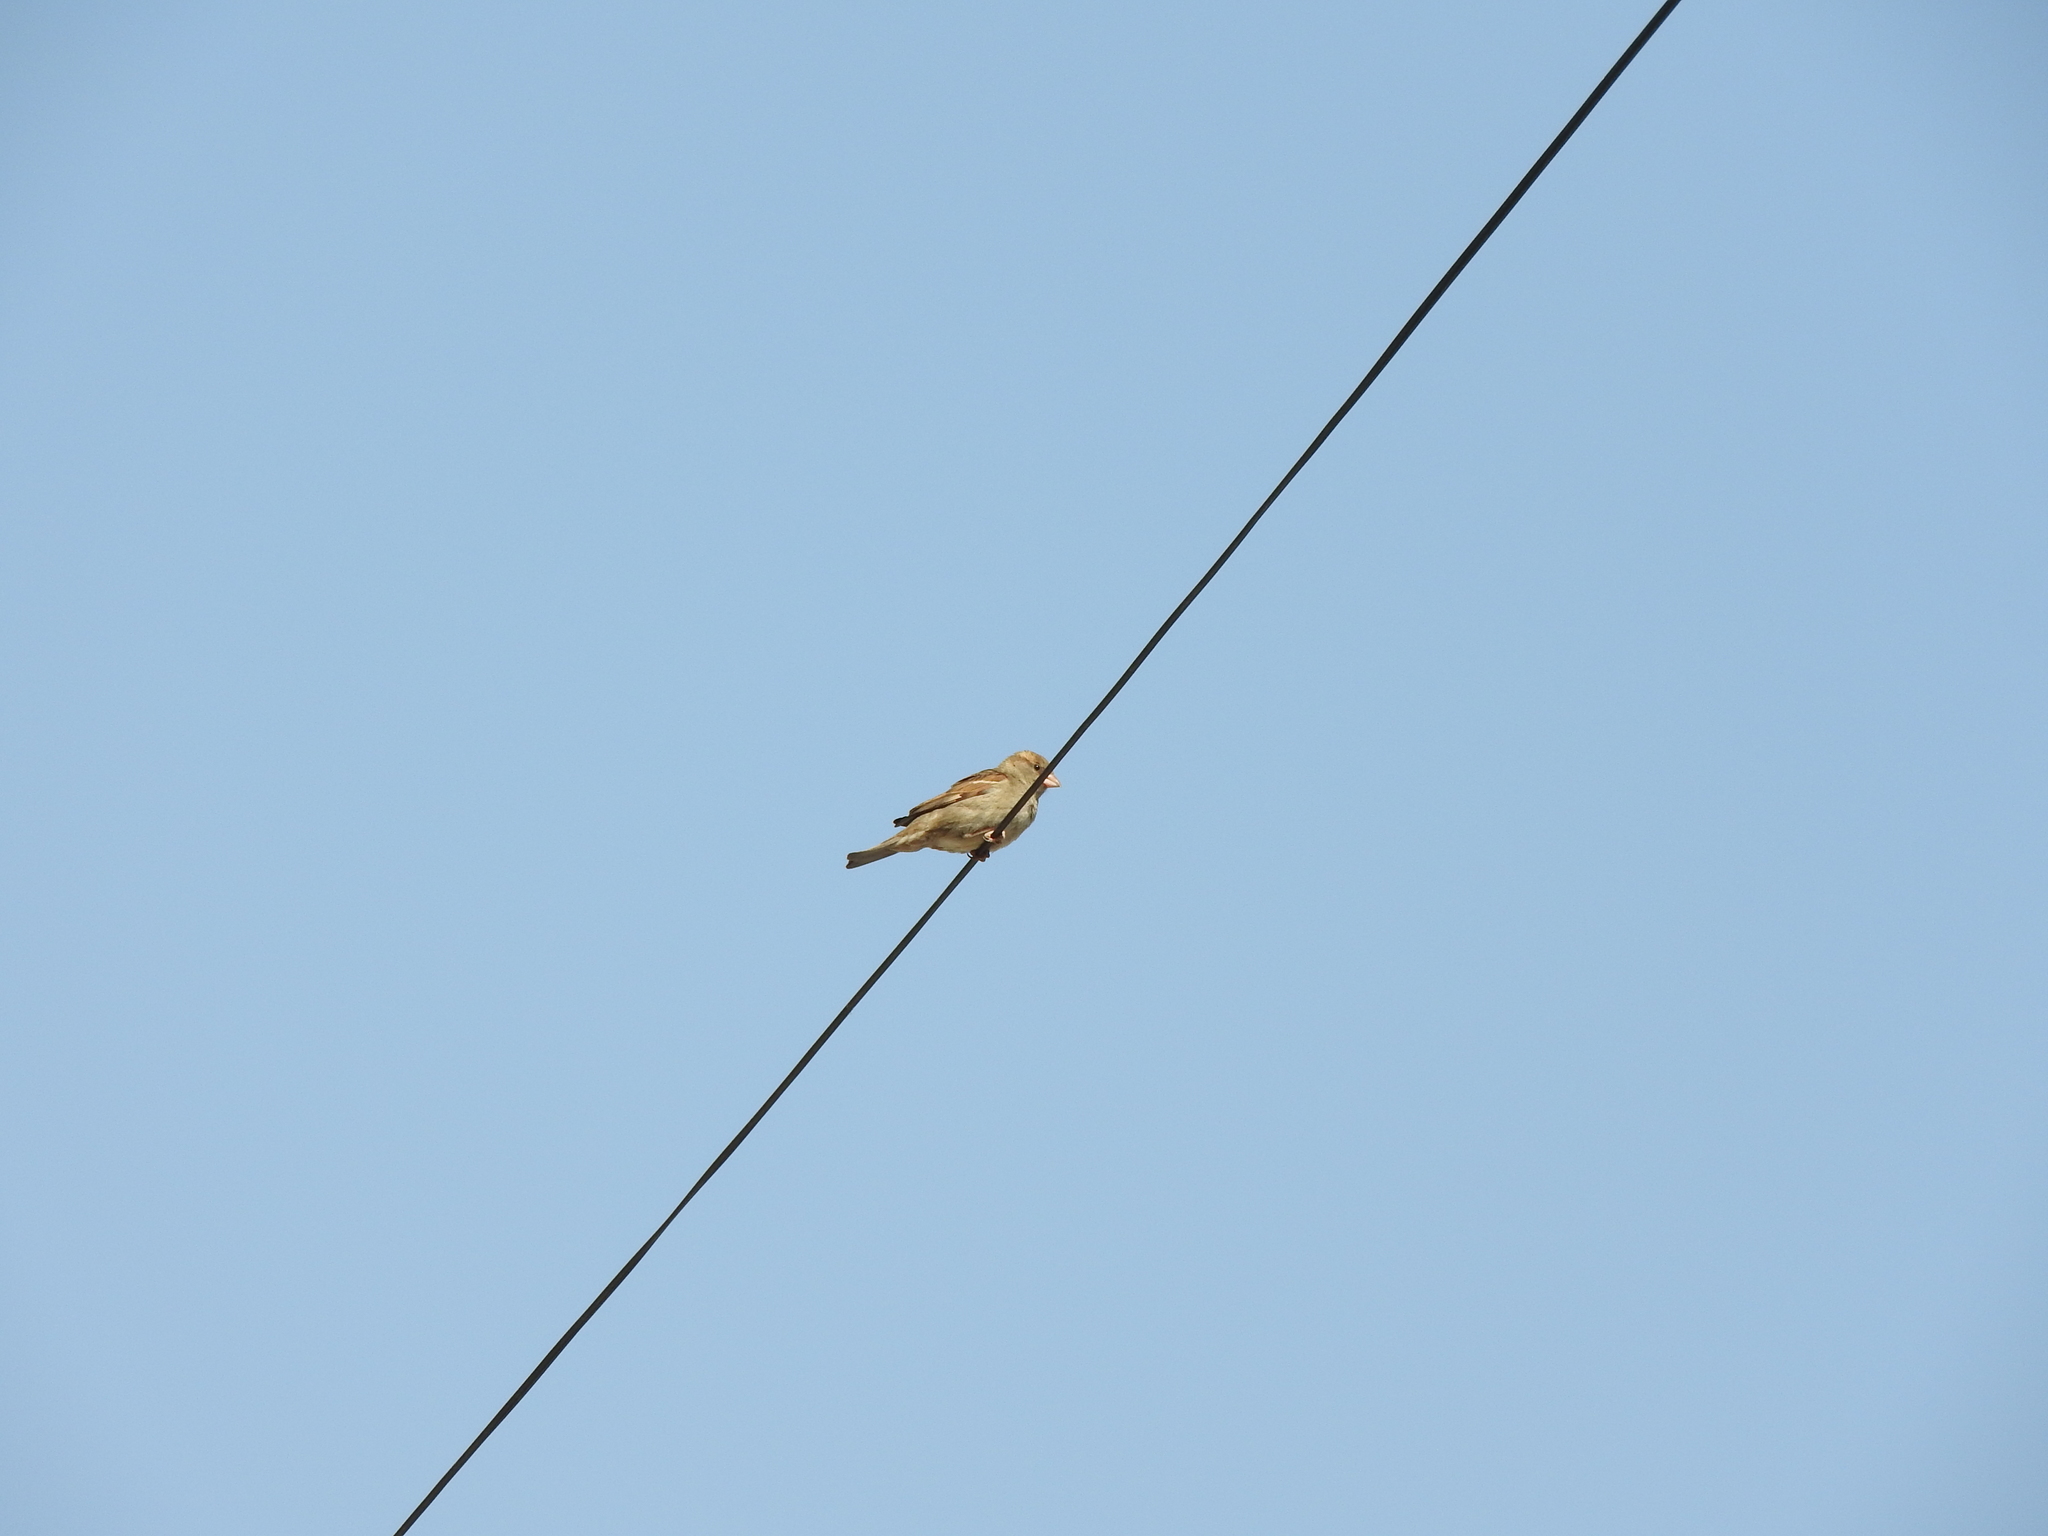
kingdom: Animalia
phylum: Chordata
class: Aves
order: Passeriformes
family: Passeridae
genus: Passer
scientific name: Passer domesticus
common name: House sparrow
